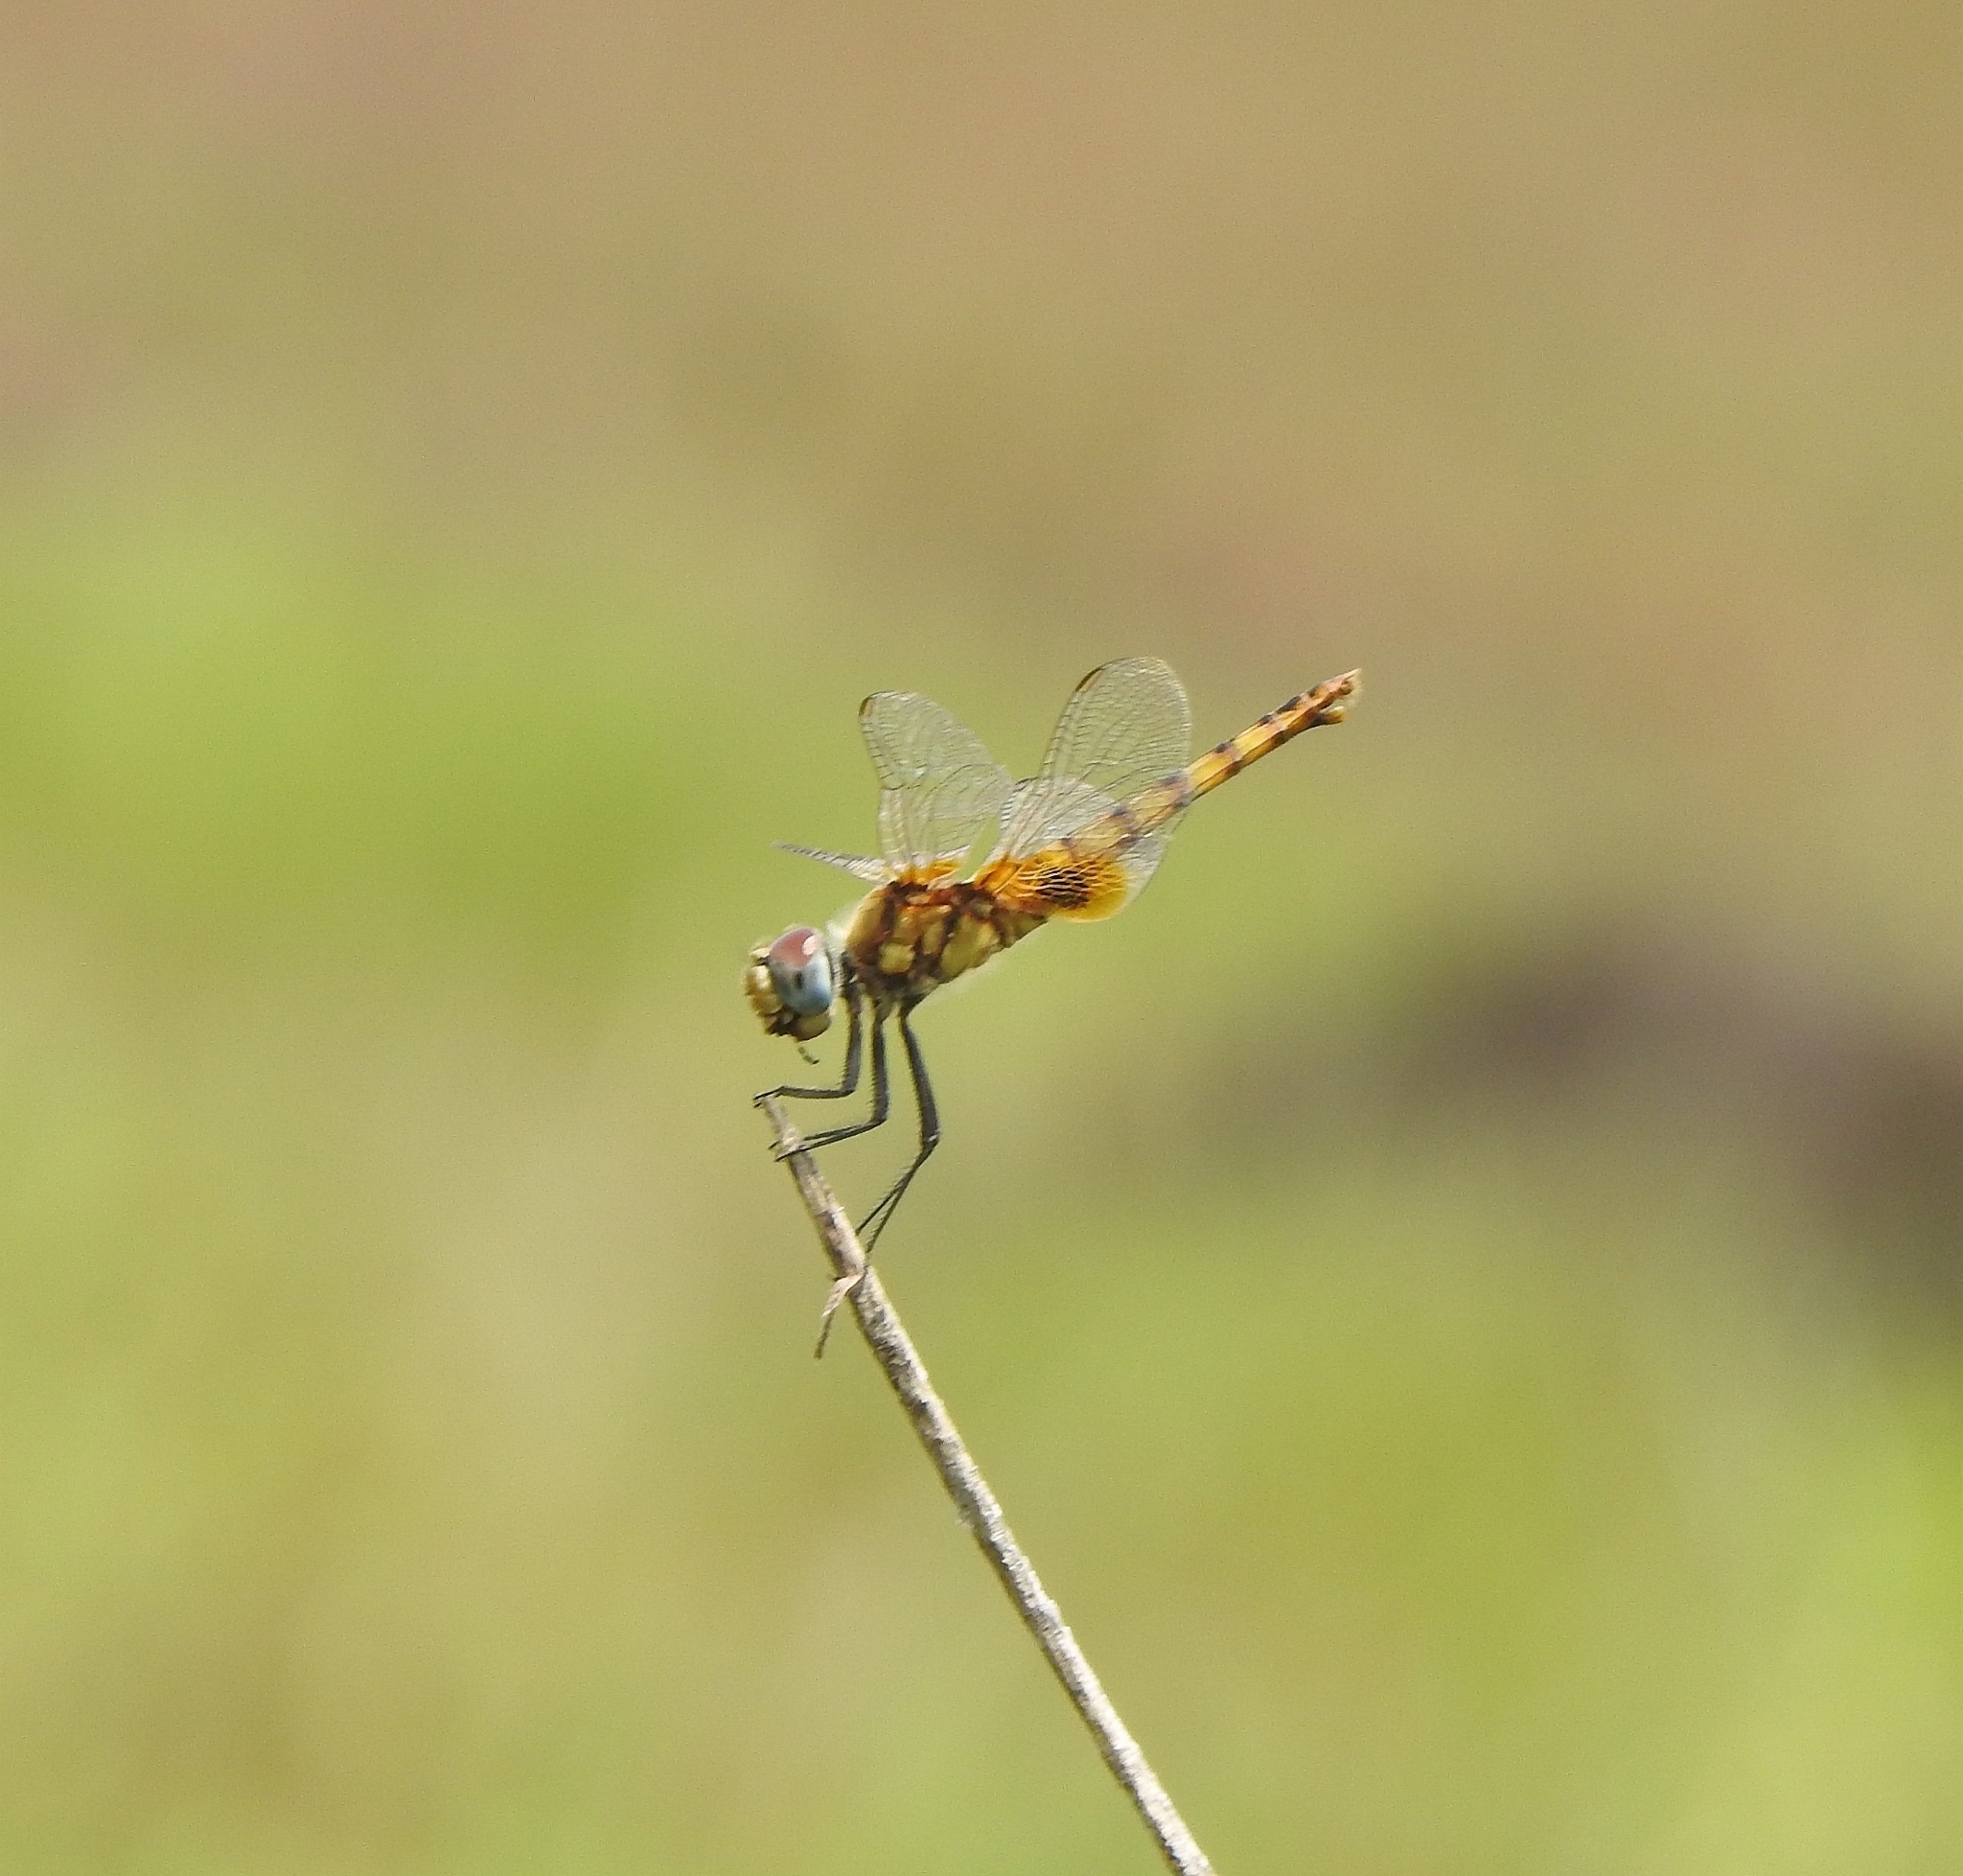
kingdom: Animalia
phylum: Arthropoda
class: Insecta
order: Odonata
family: Libellulidae
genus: Urothemis
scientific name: Urothemis signata
